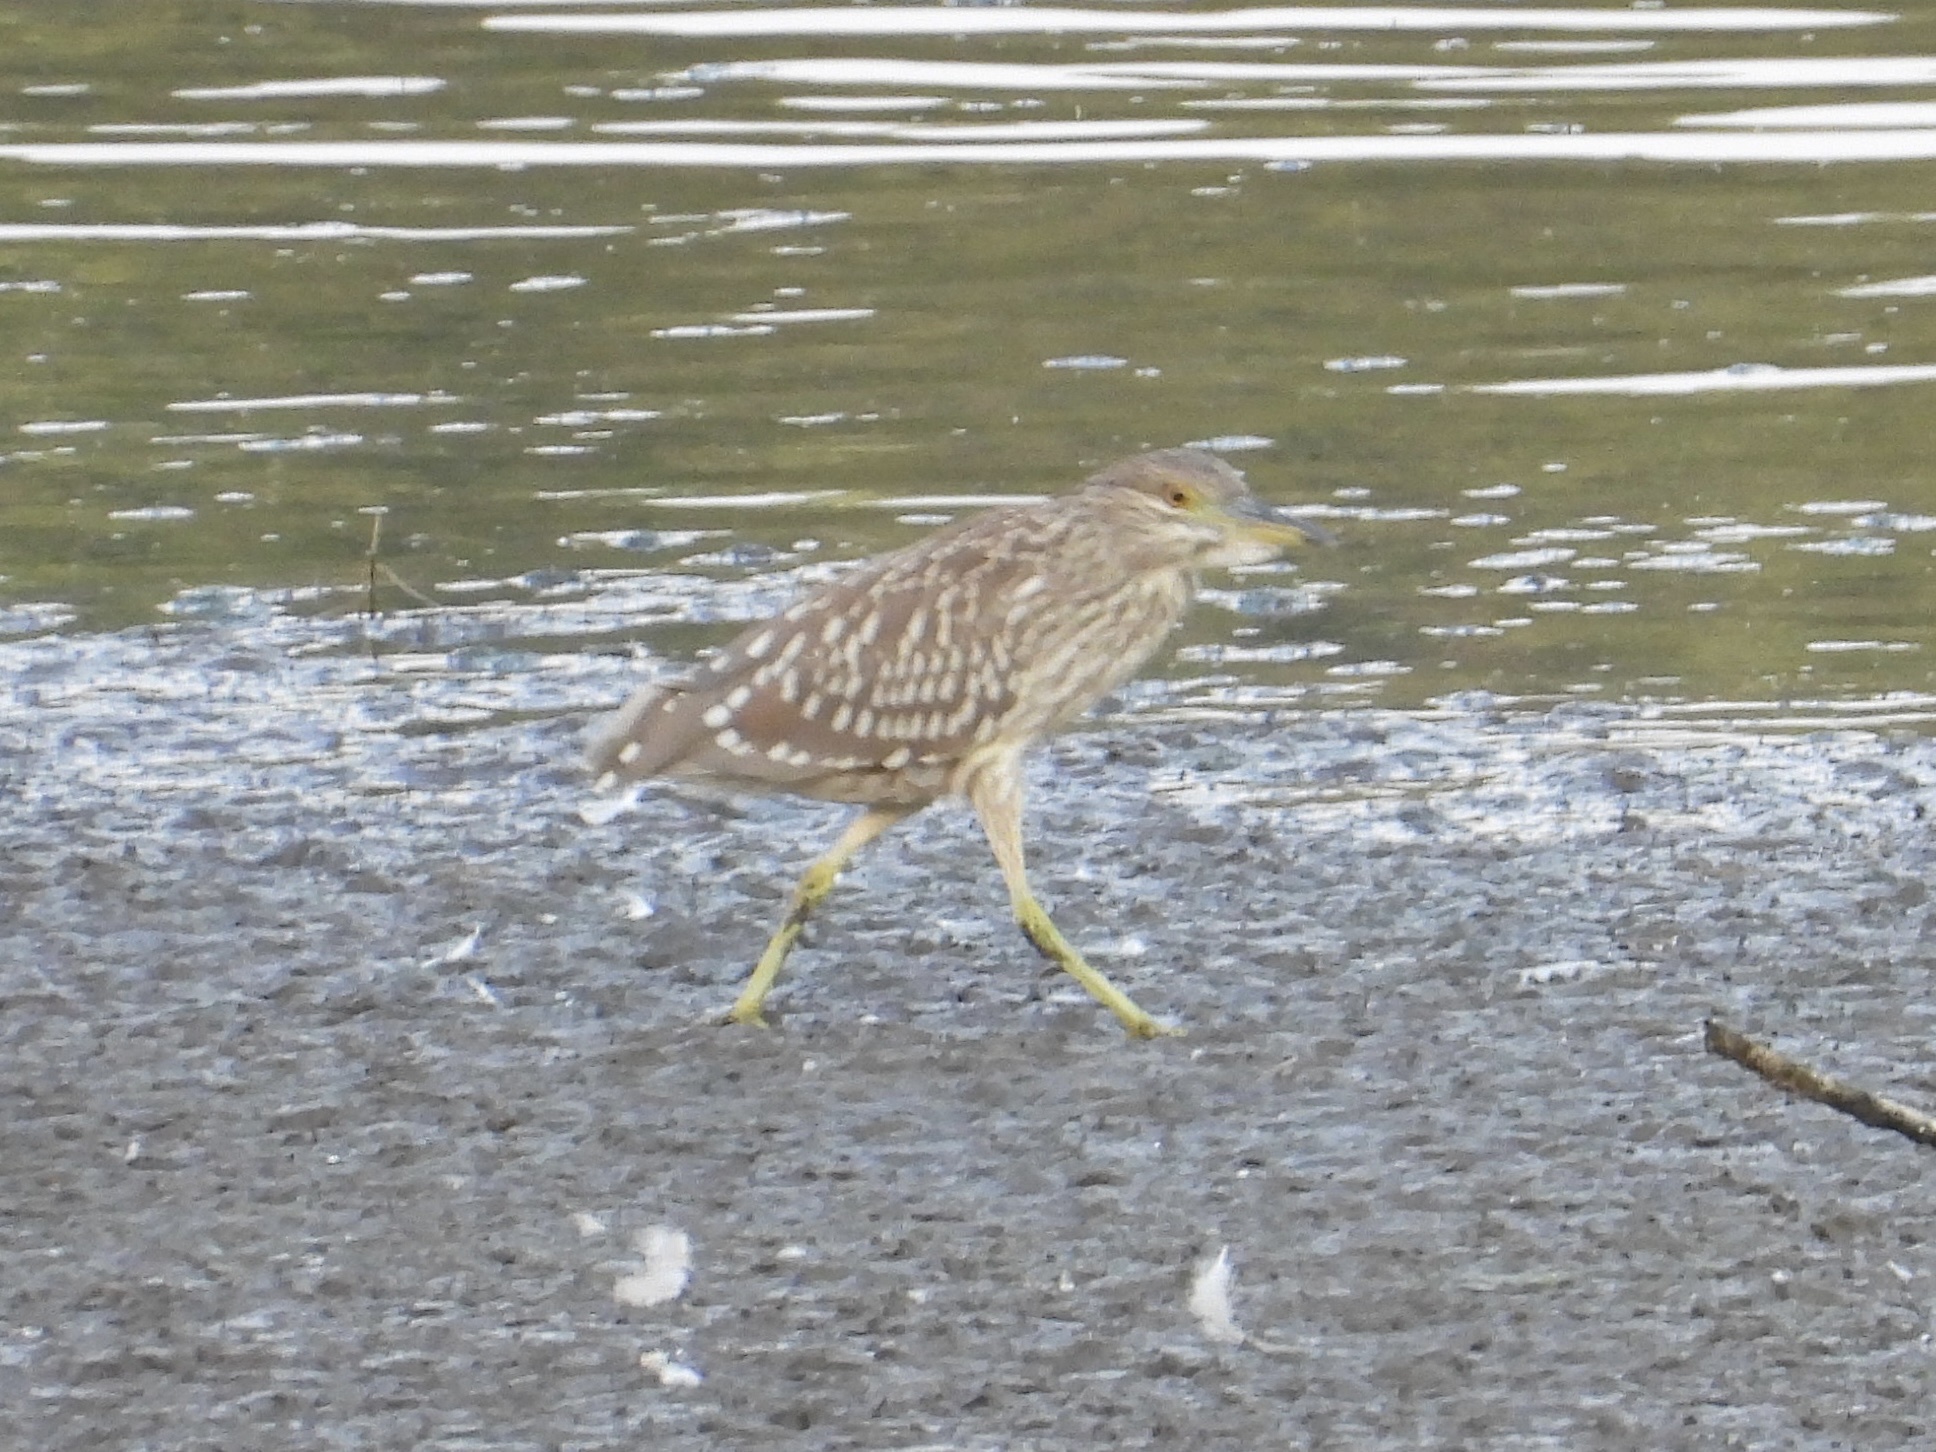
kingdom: Animalia
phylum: Chordata
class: Aves
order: Pelecaniformes
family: Ardeidae
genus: Nycticorax
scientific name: Nycticorax nycticorax
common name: Black-crowned night heron
